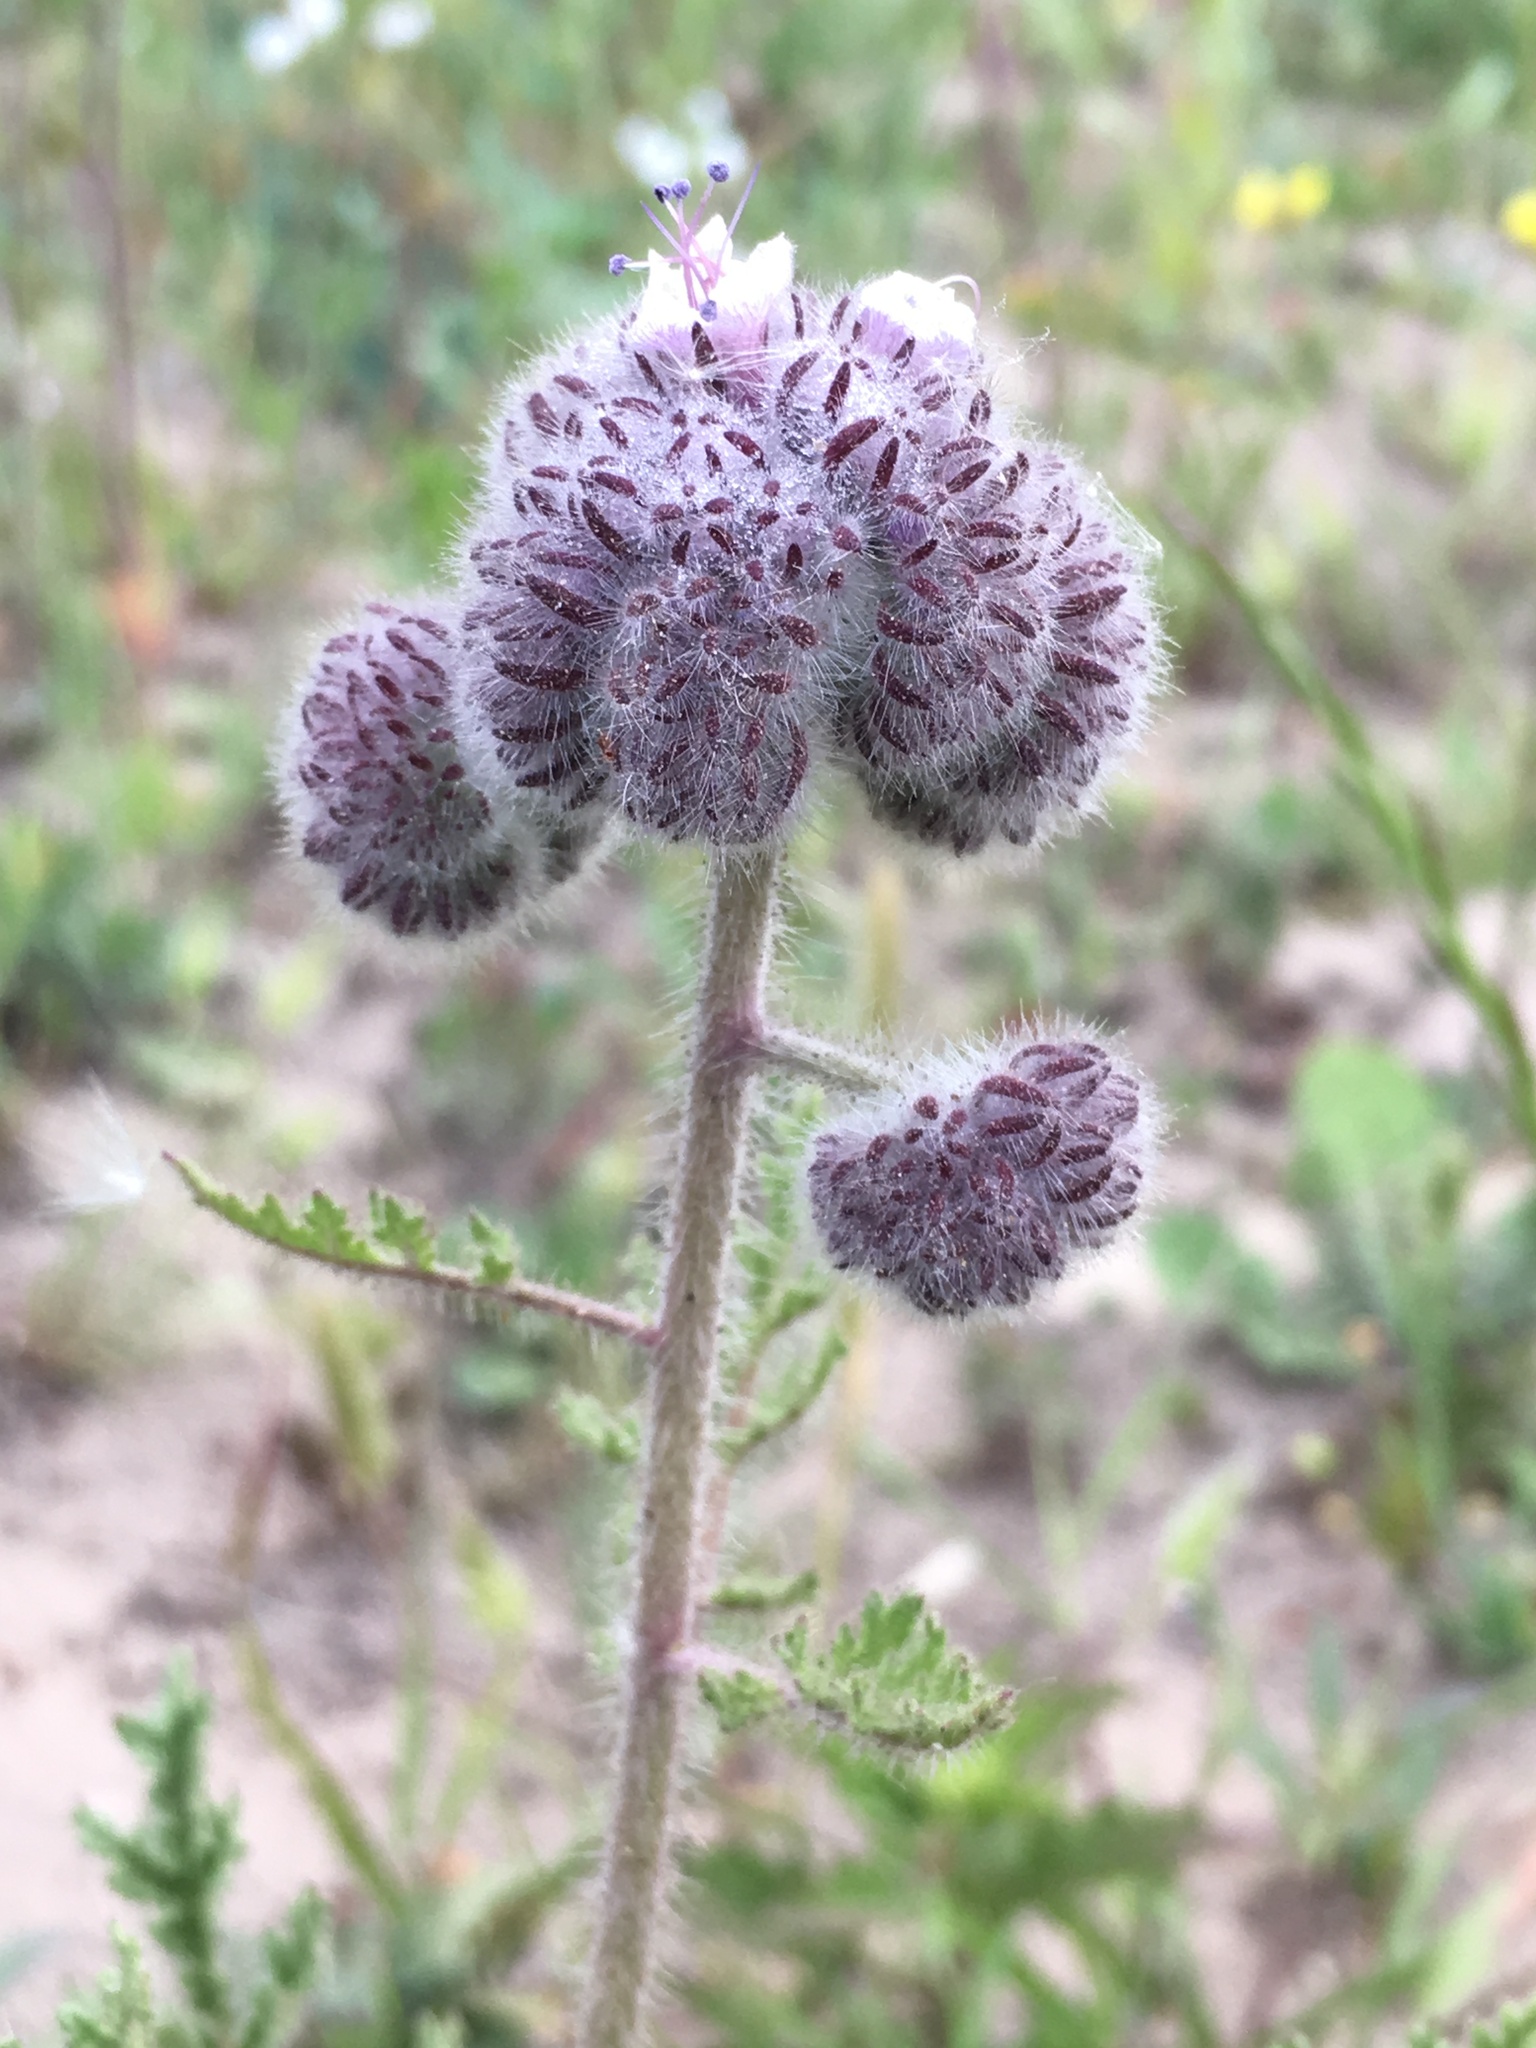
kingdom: Plantae
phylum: Tracheophyta
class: Magnoliopsida
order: Boraginales
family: Hydrophyllaceae
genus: Phacelia
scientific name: Phacelia hubbyi
